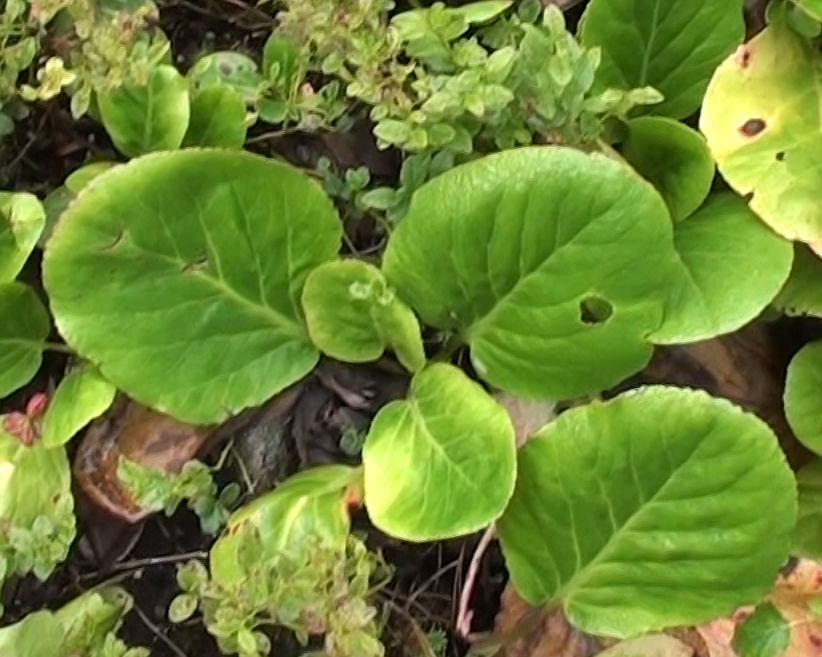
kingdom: Plantae
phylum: Tracheophyta
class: Magnoliopsida
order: Saxifragales
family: Saxifragaceae
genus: Bergenia
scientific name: Bergenia crassifolia
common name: Elephant-ears
